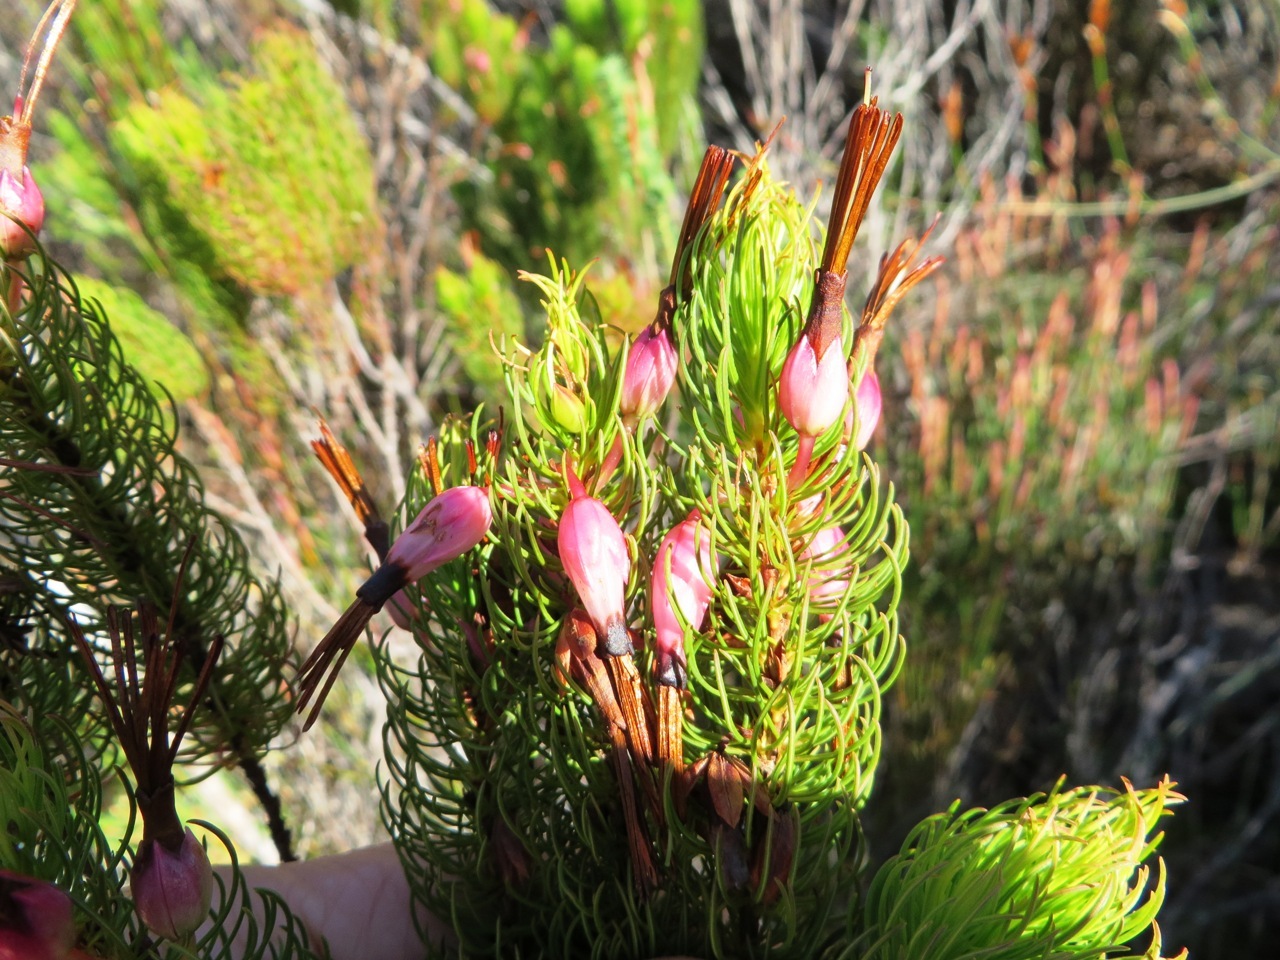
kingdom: Plantae
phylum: Tracheophyta
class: Magnoliopsida
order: Ericales
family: Ericaceae
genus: Erica
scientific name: Erica plukenetii
